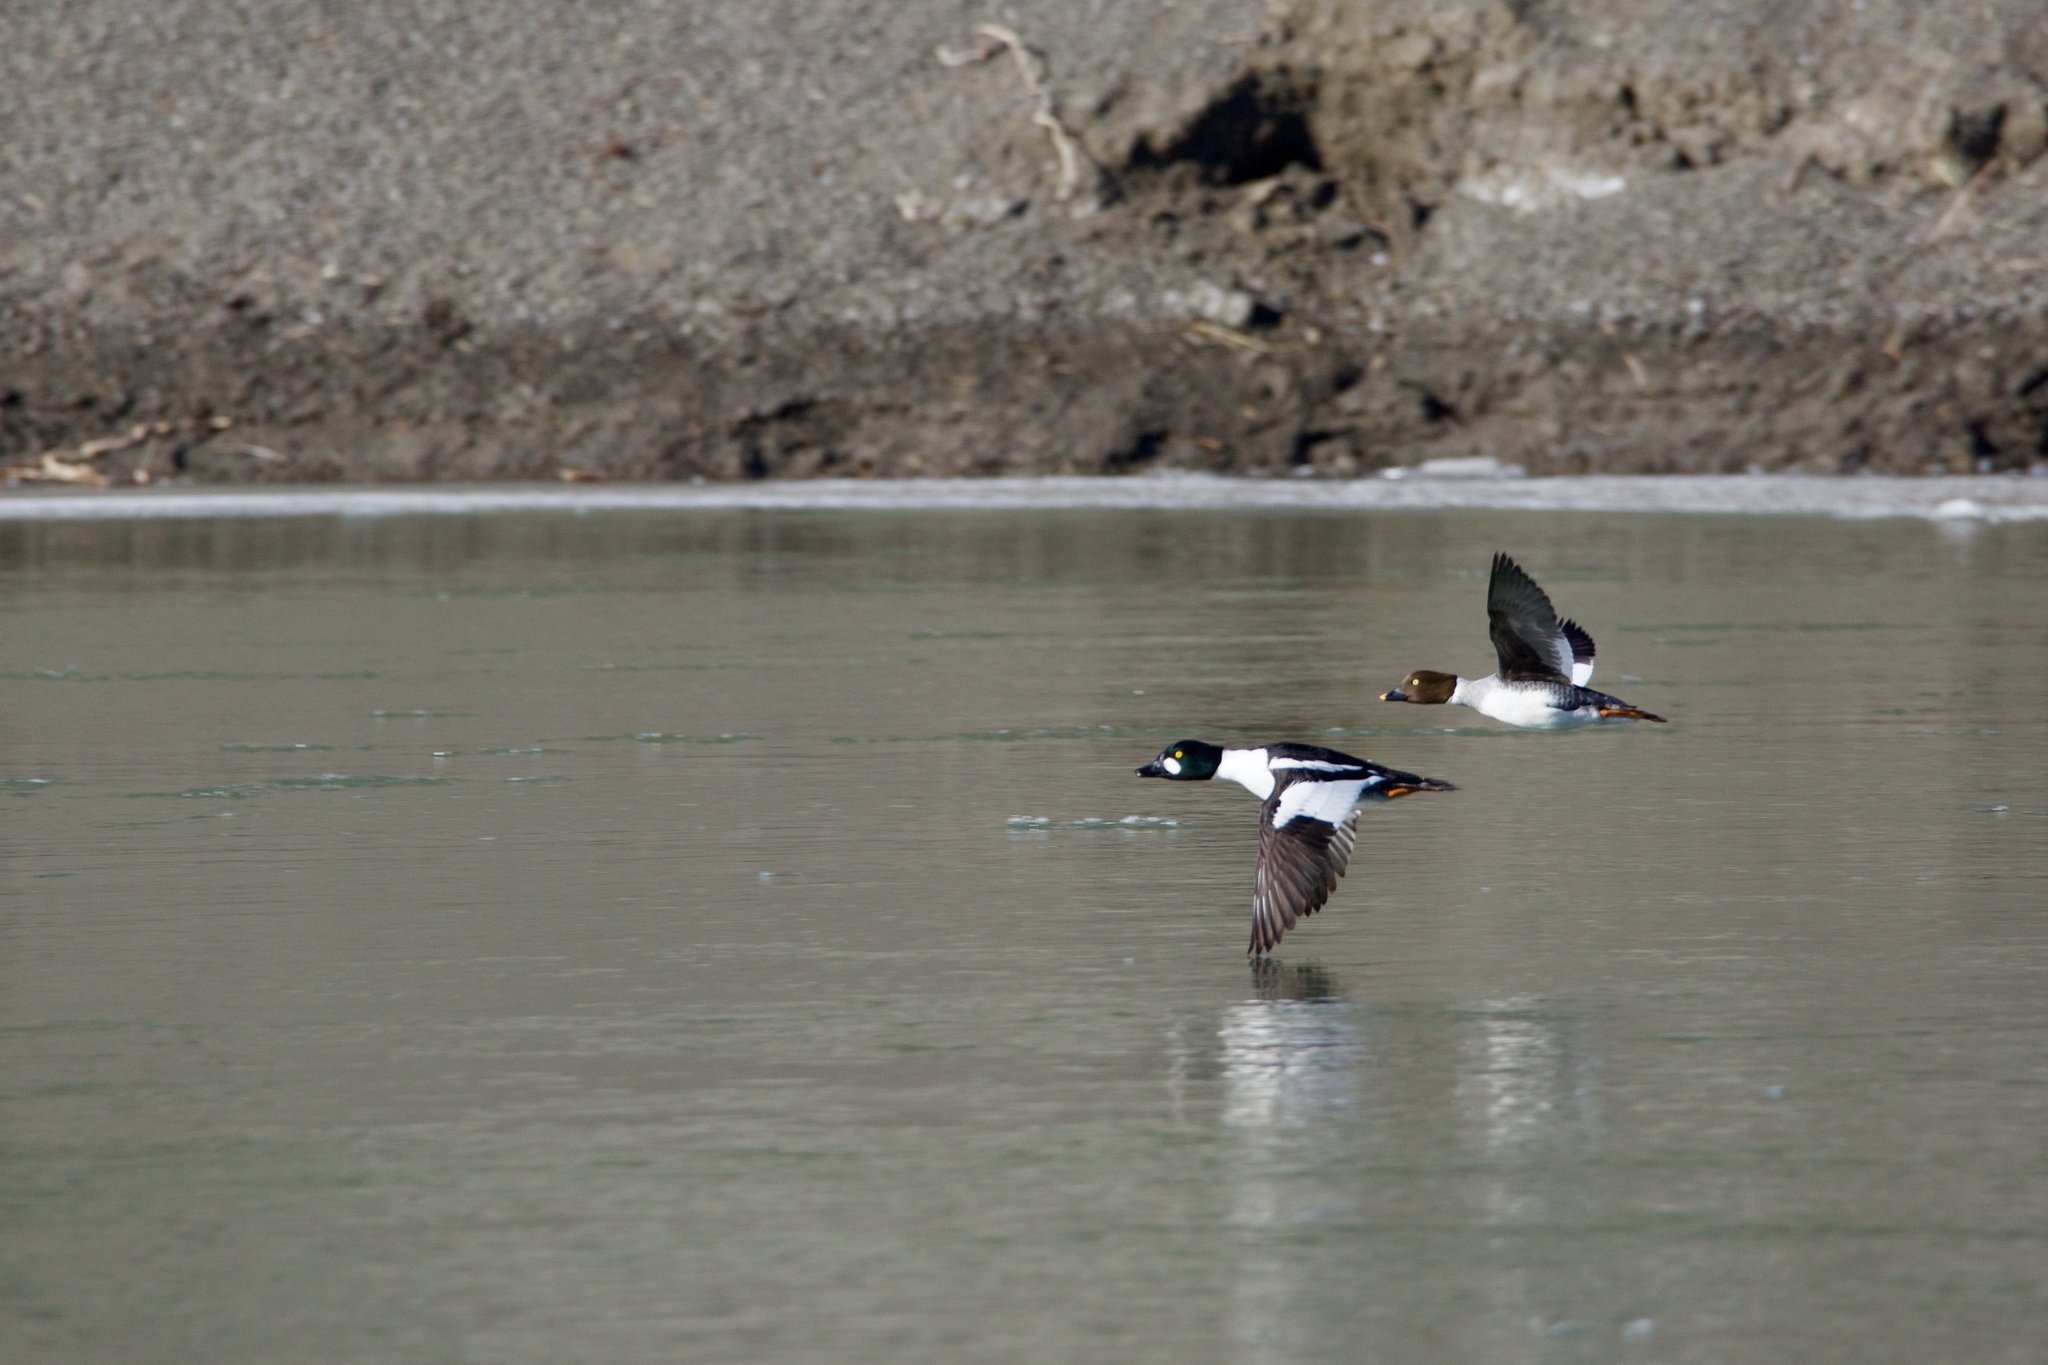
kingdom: Animalia
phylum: Chordata
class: Aves
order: Anseriformes
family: Anatidae
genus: Bucephala
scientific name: Bucephala clangula
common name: Common goldeneye
